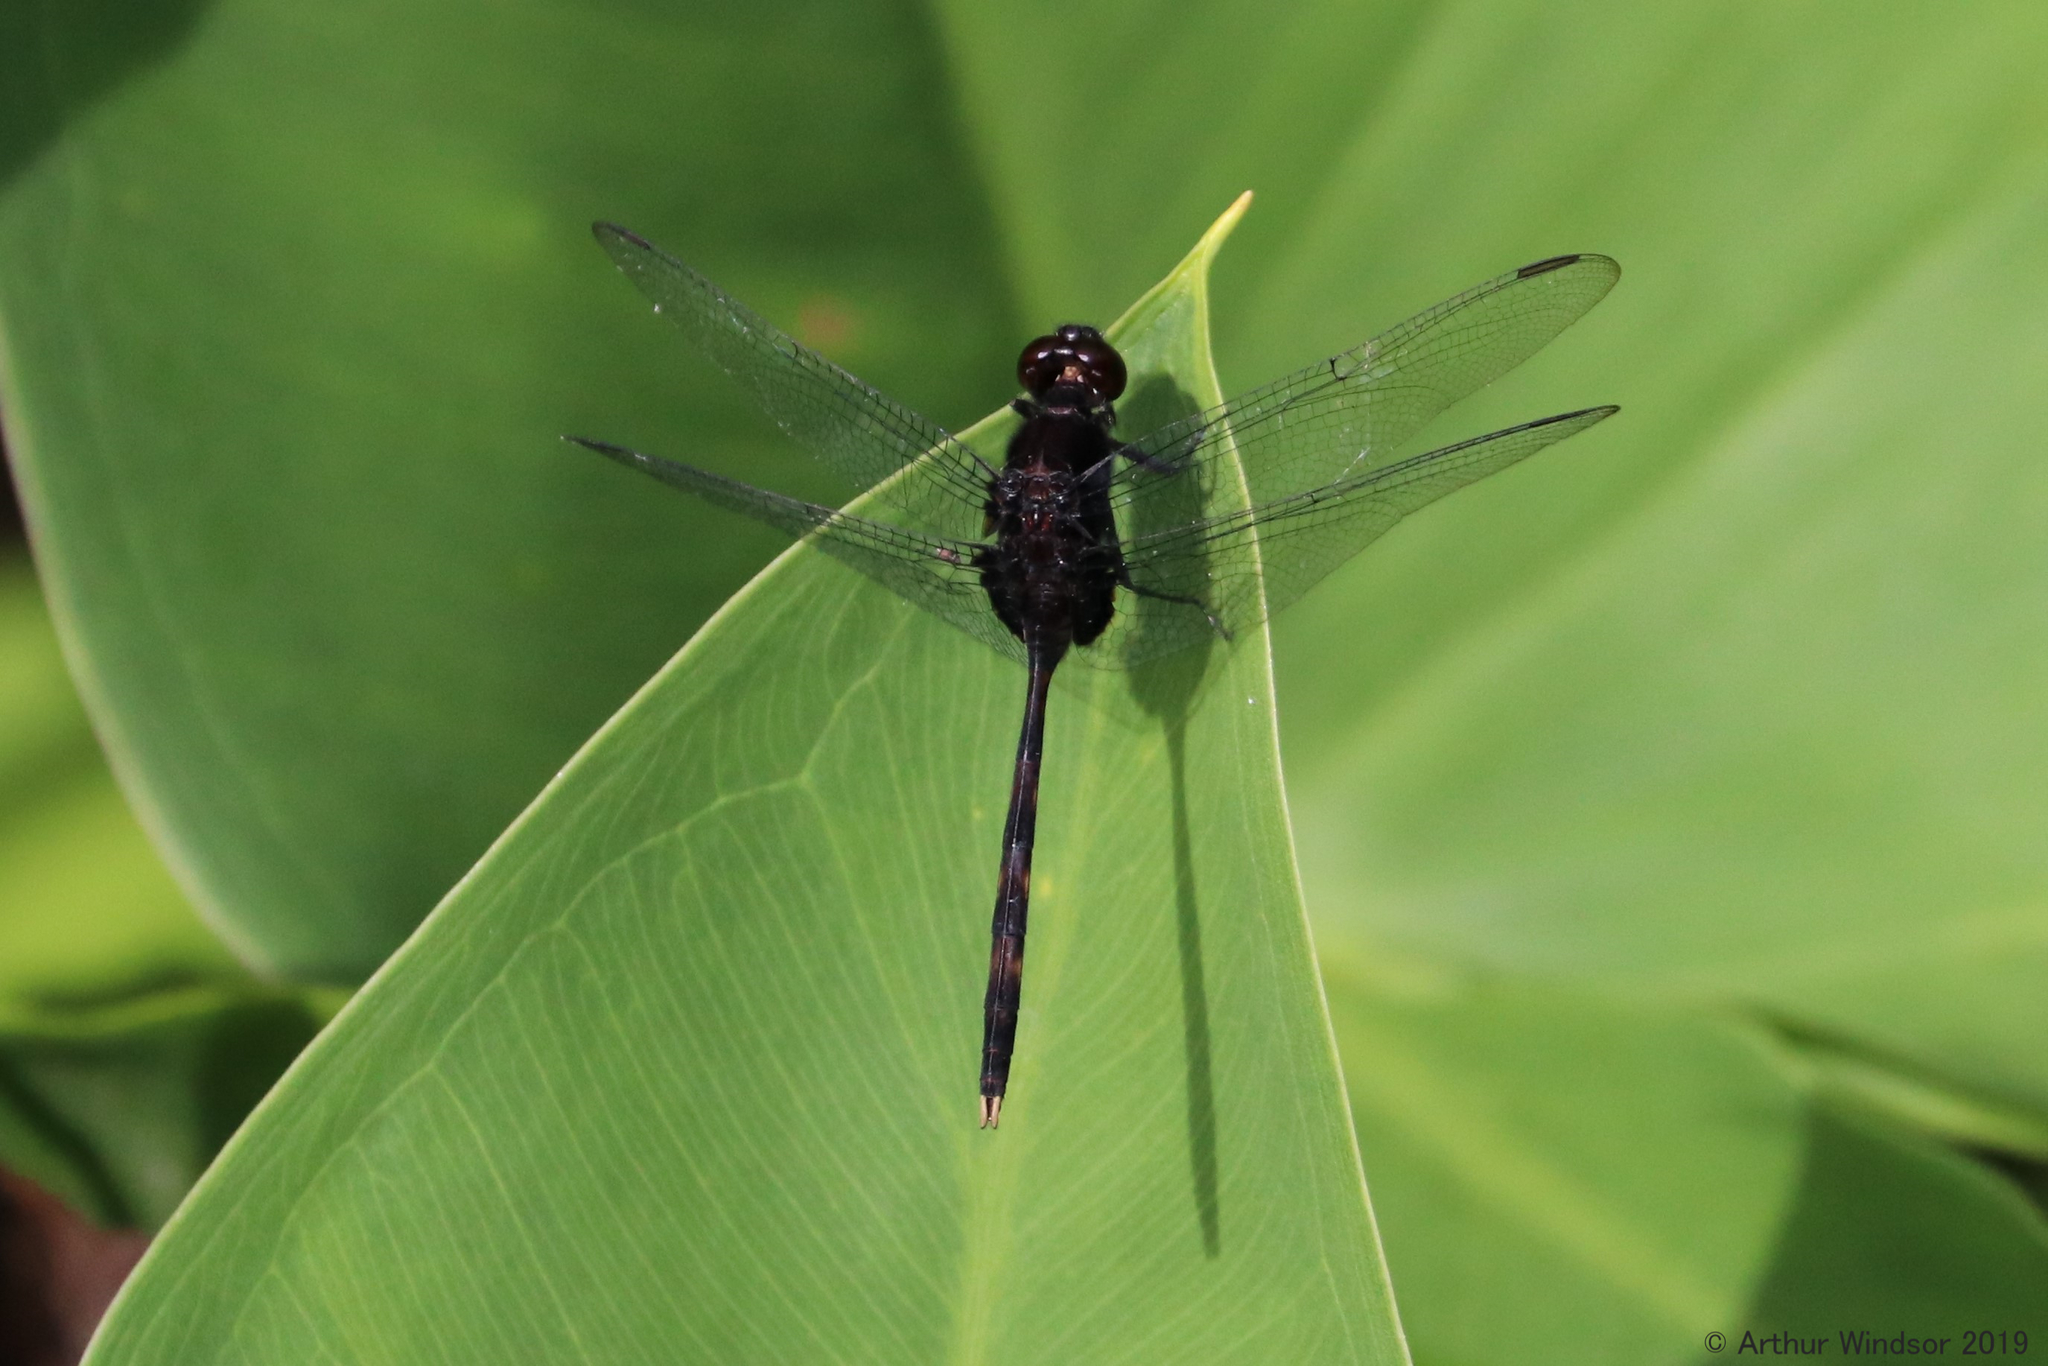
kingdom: Animalia
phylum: Arthropoda
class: Insecta
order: Odonata
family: Libellulidae
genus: Erythemis
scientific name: Erythemis plebeja
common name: Pin-tailed pondhawk
